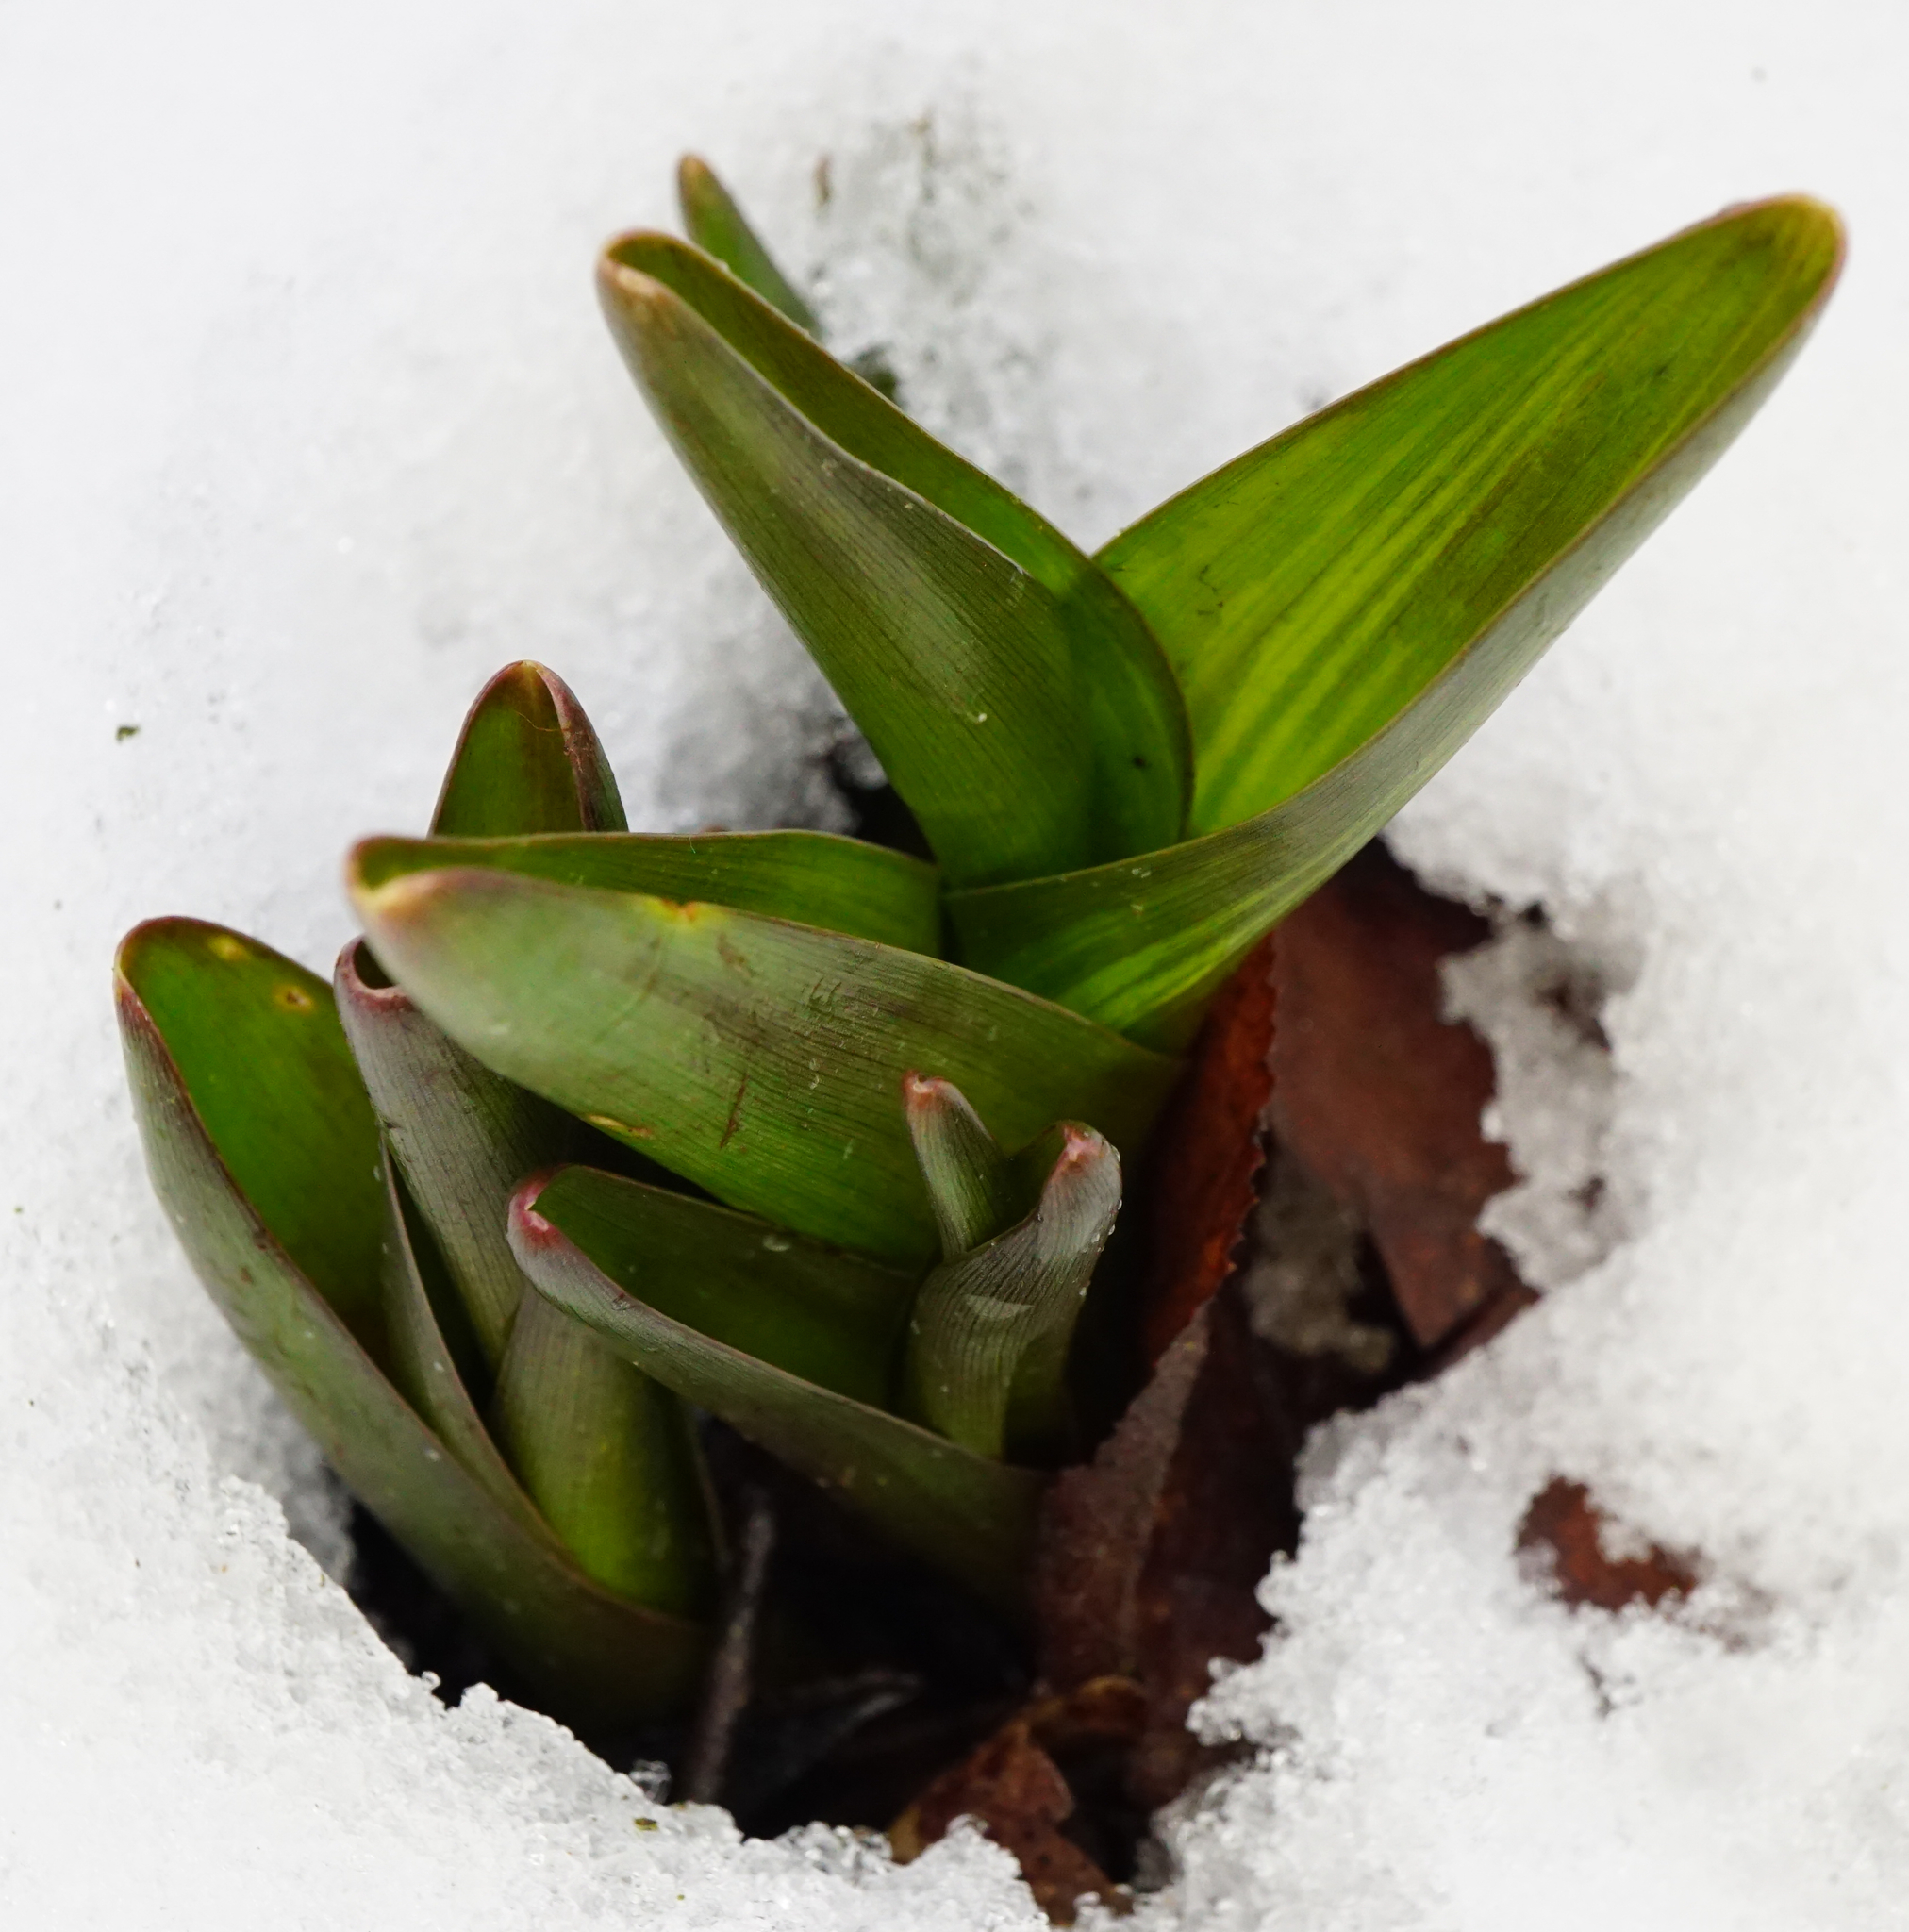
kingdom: Plantae
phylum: Tracheophyta
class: Liliopsida
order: Liliales
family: Colchicaceae
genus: Colchicum
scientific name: Colchicum autumnale
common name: Autumn crocus
